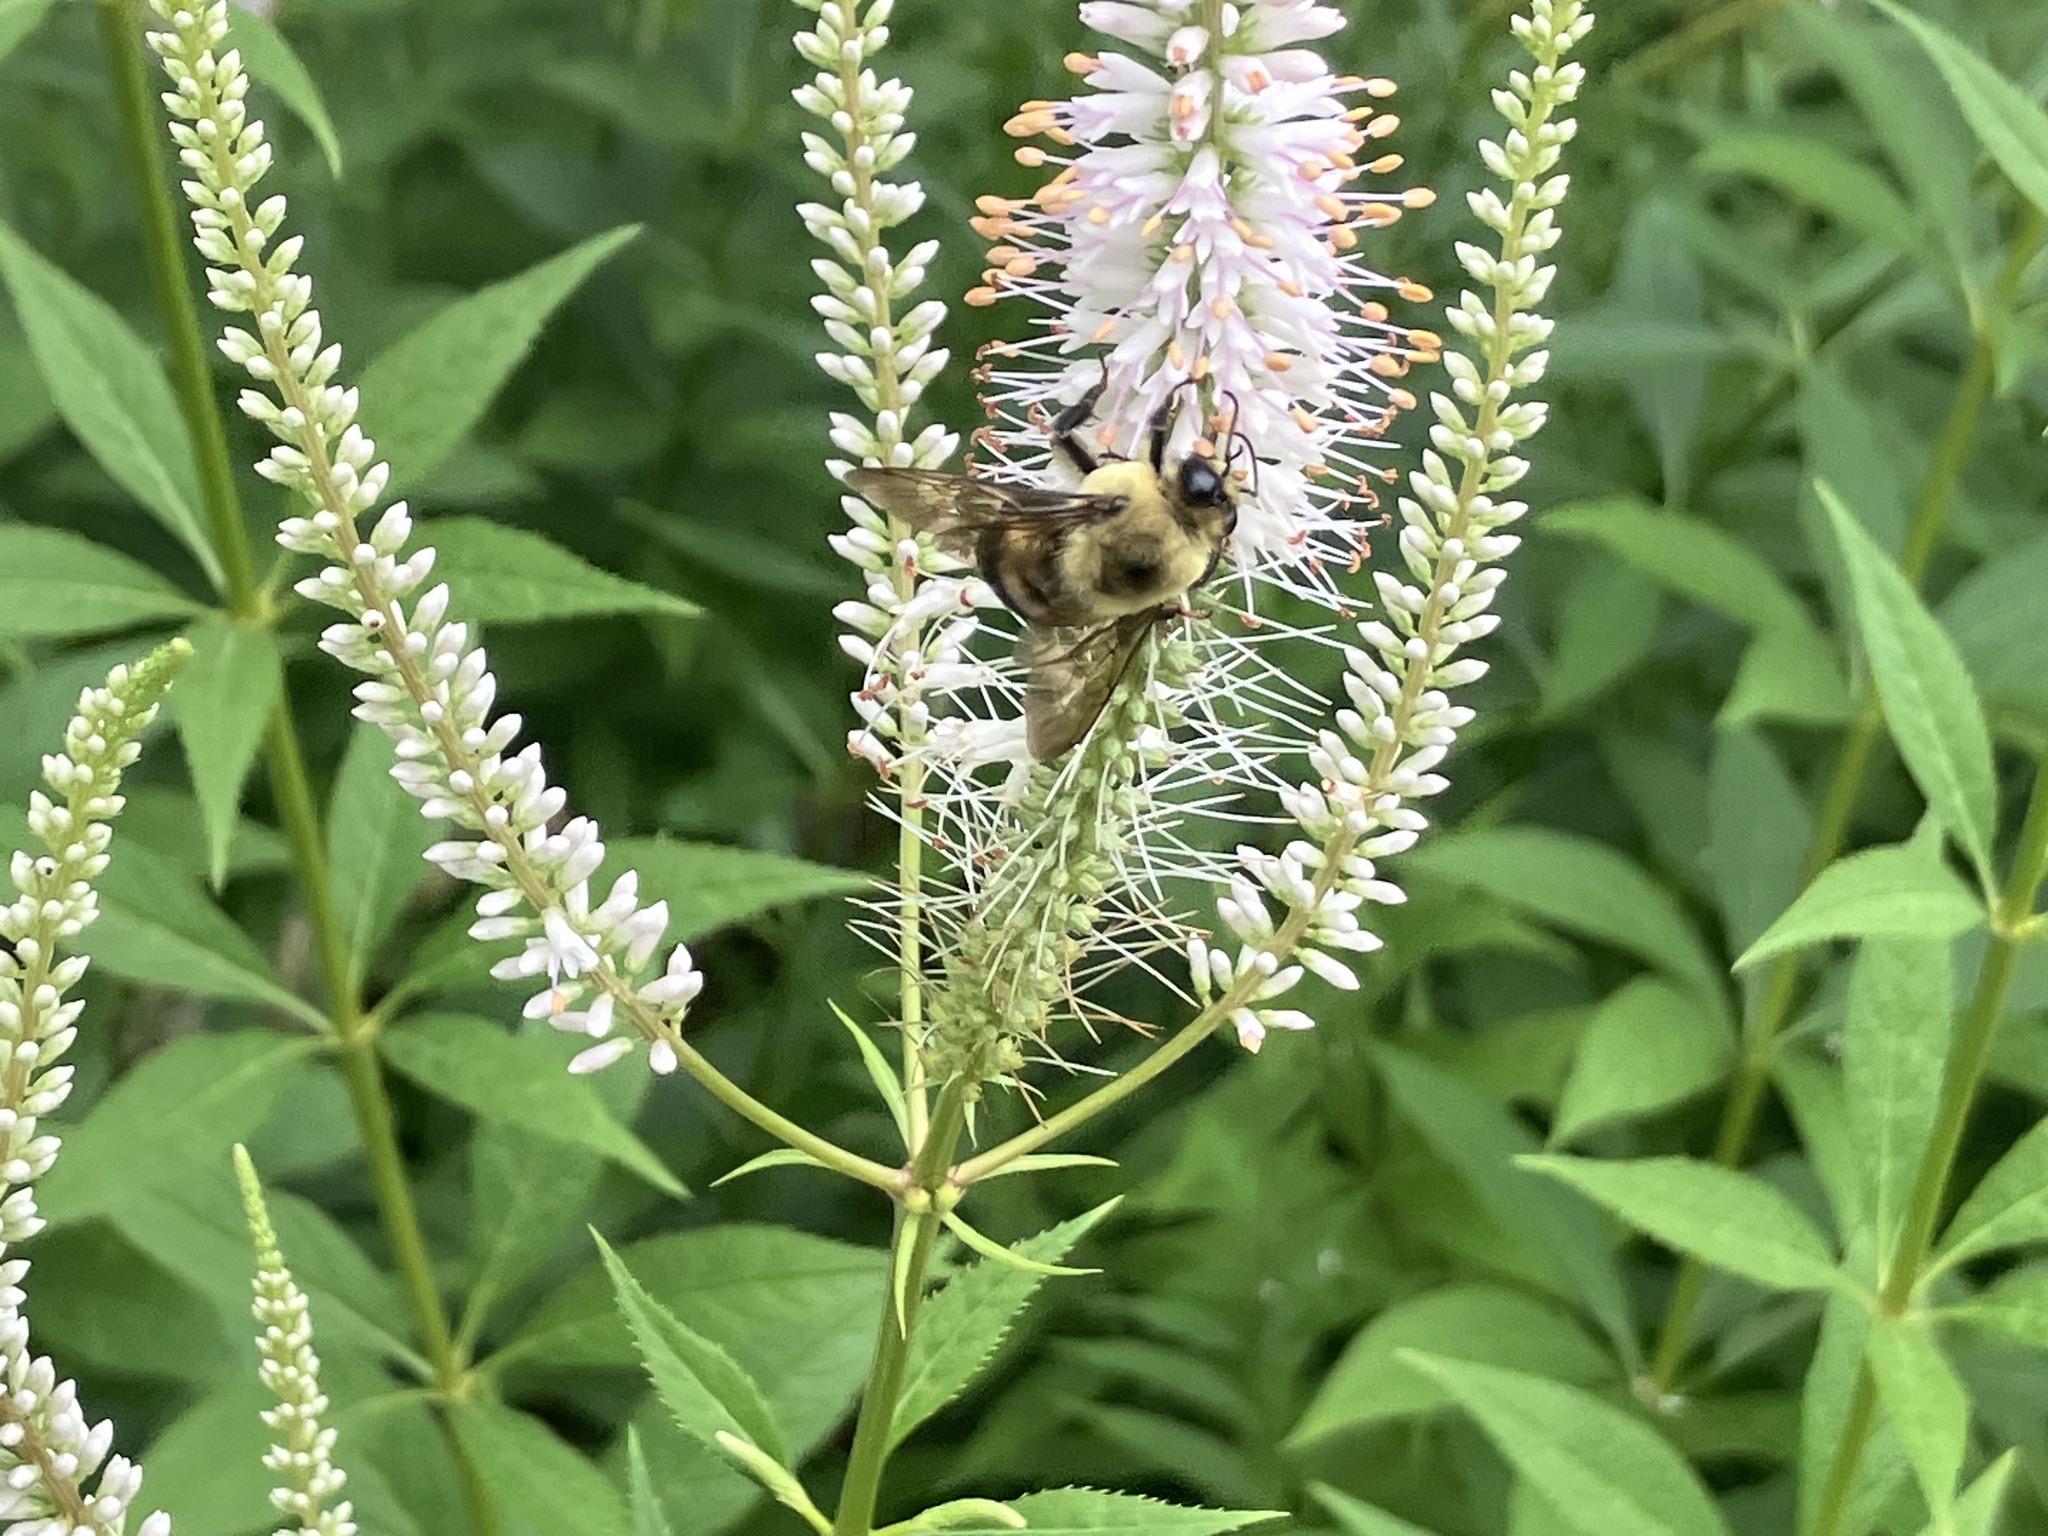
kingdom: Animalia
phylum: Arthropoda
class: Insecta
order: Hymenoptera
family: Apidae
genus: Bombus
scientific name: Bombus griseocollis
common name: Brown-belted bumble bee
